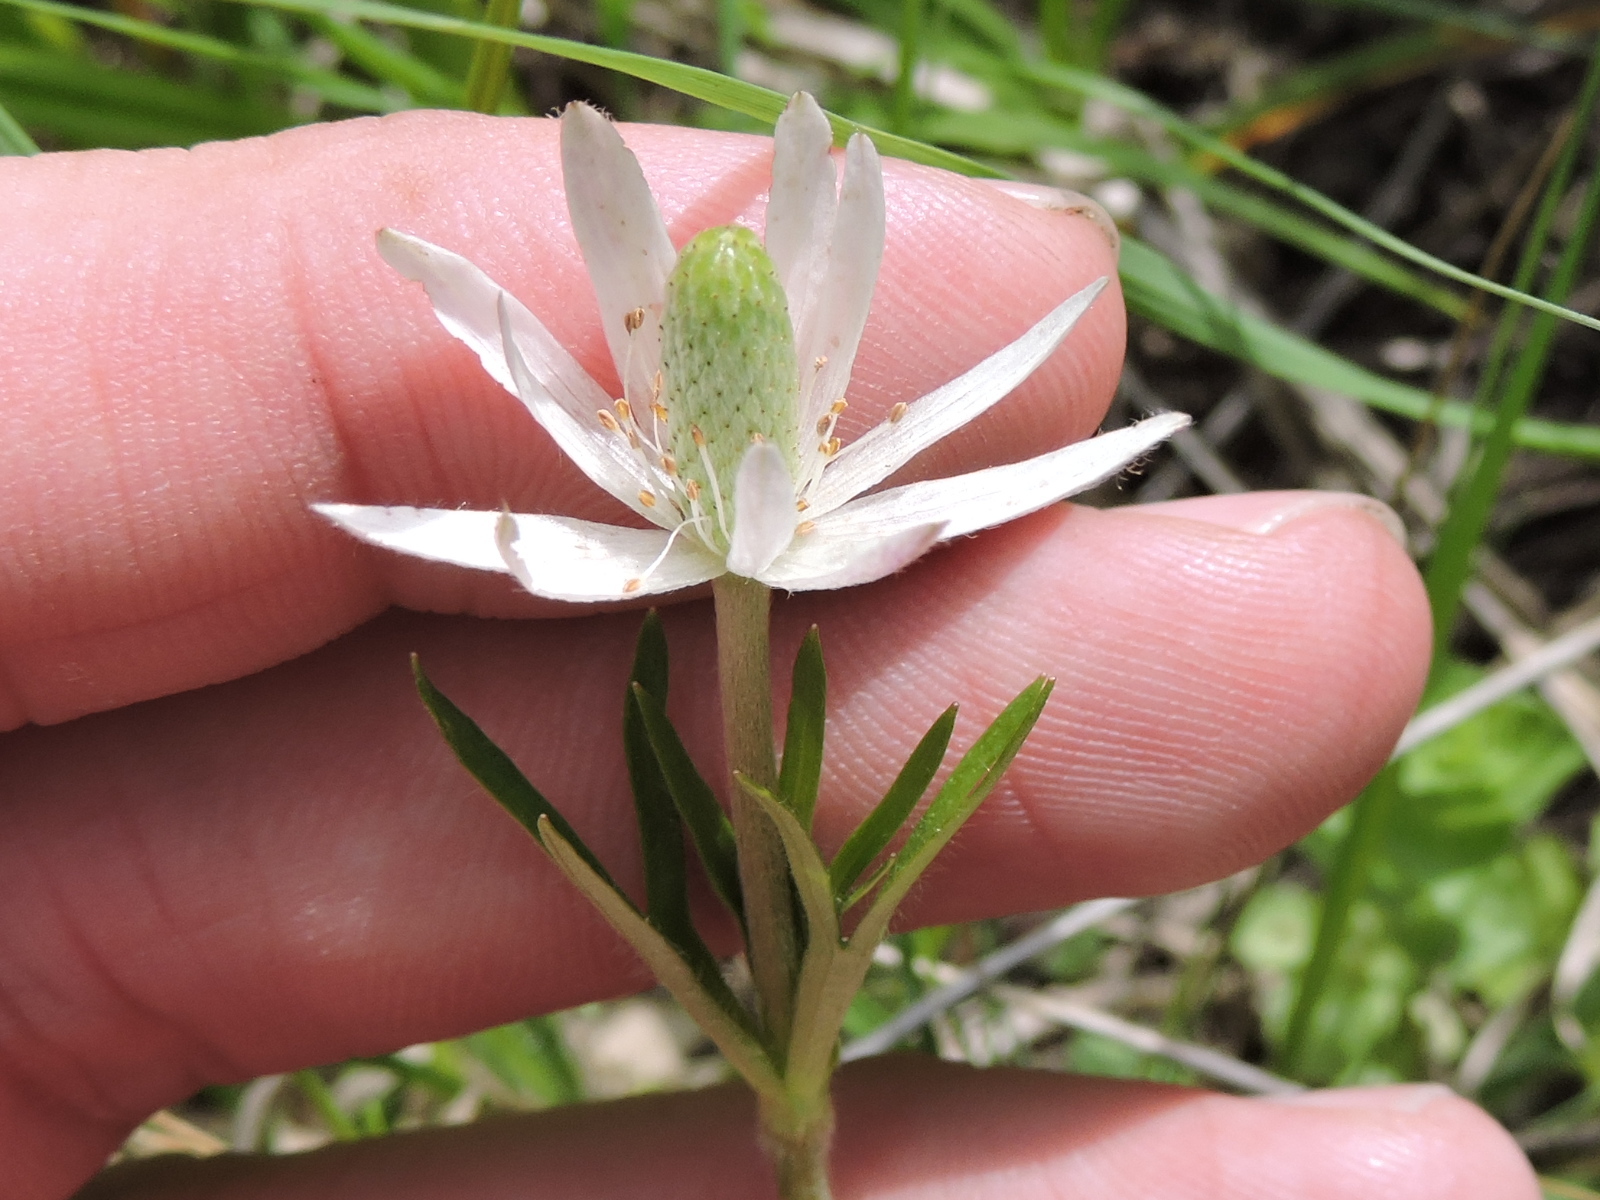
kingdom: Plantae
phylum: Tracheophyta
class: Magnoliopsida
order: Ranunculales
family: Ranunculaceae
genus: Anemone
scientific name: Anemone berlandieri
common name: Ten-petal anemone
